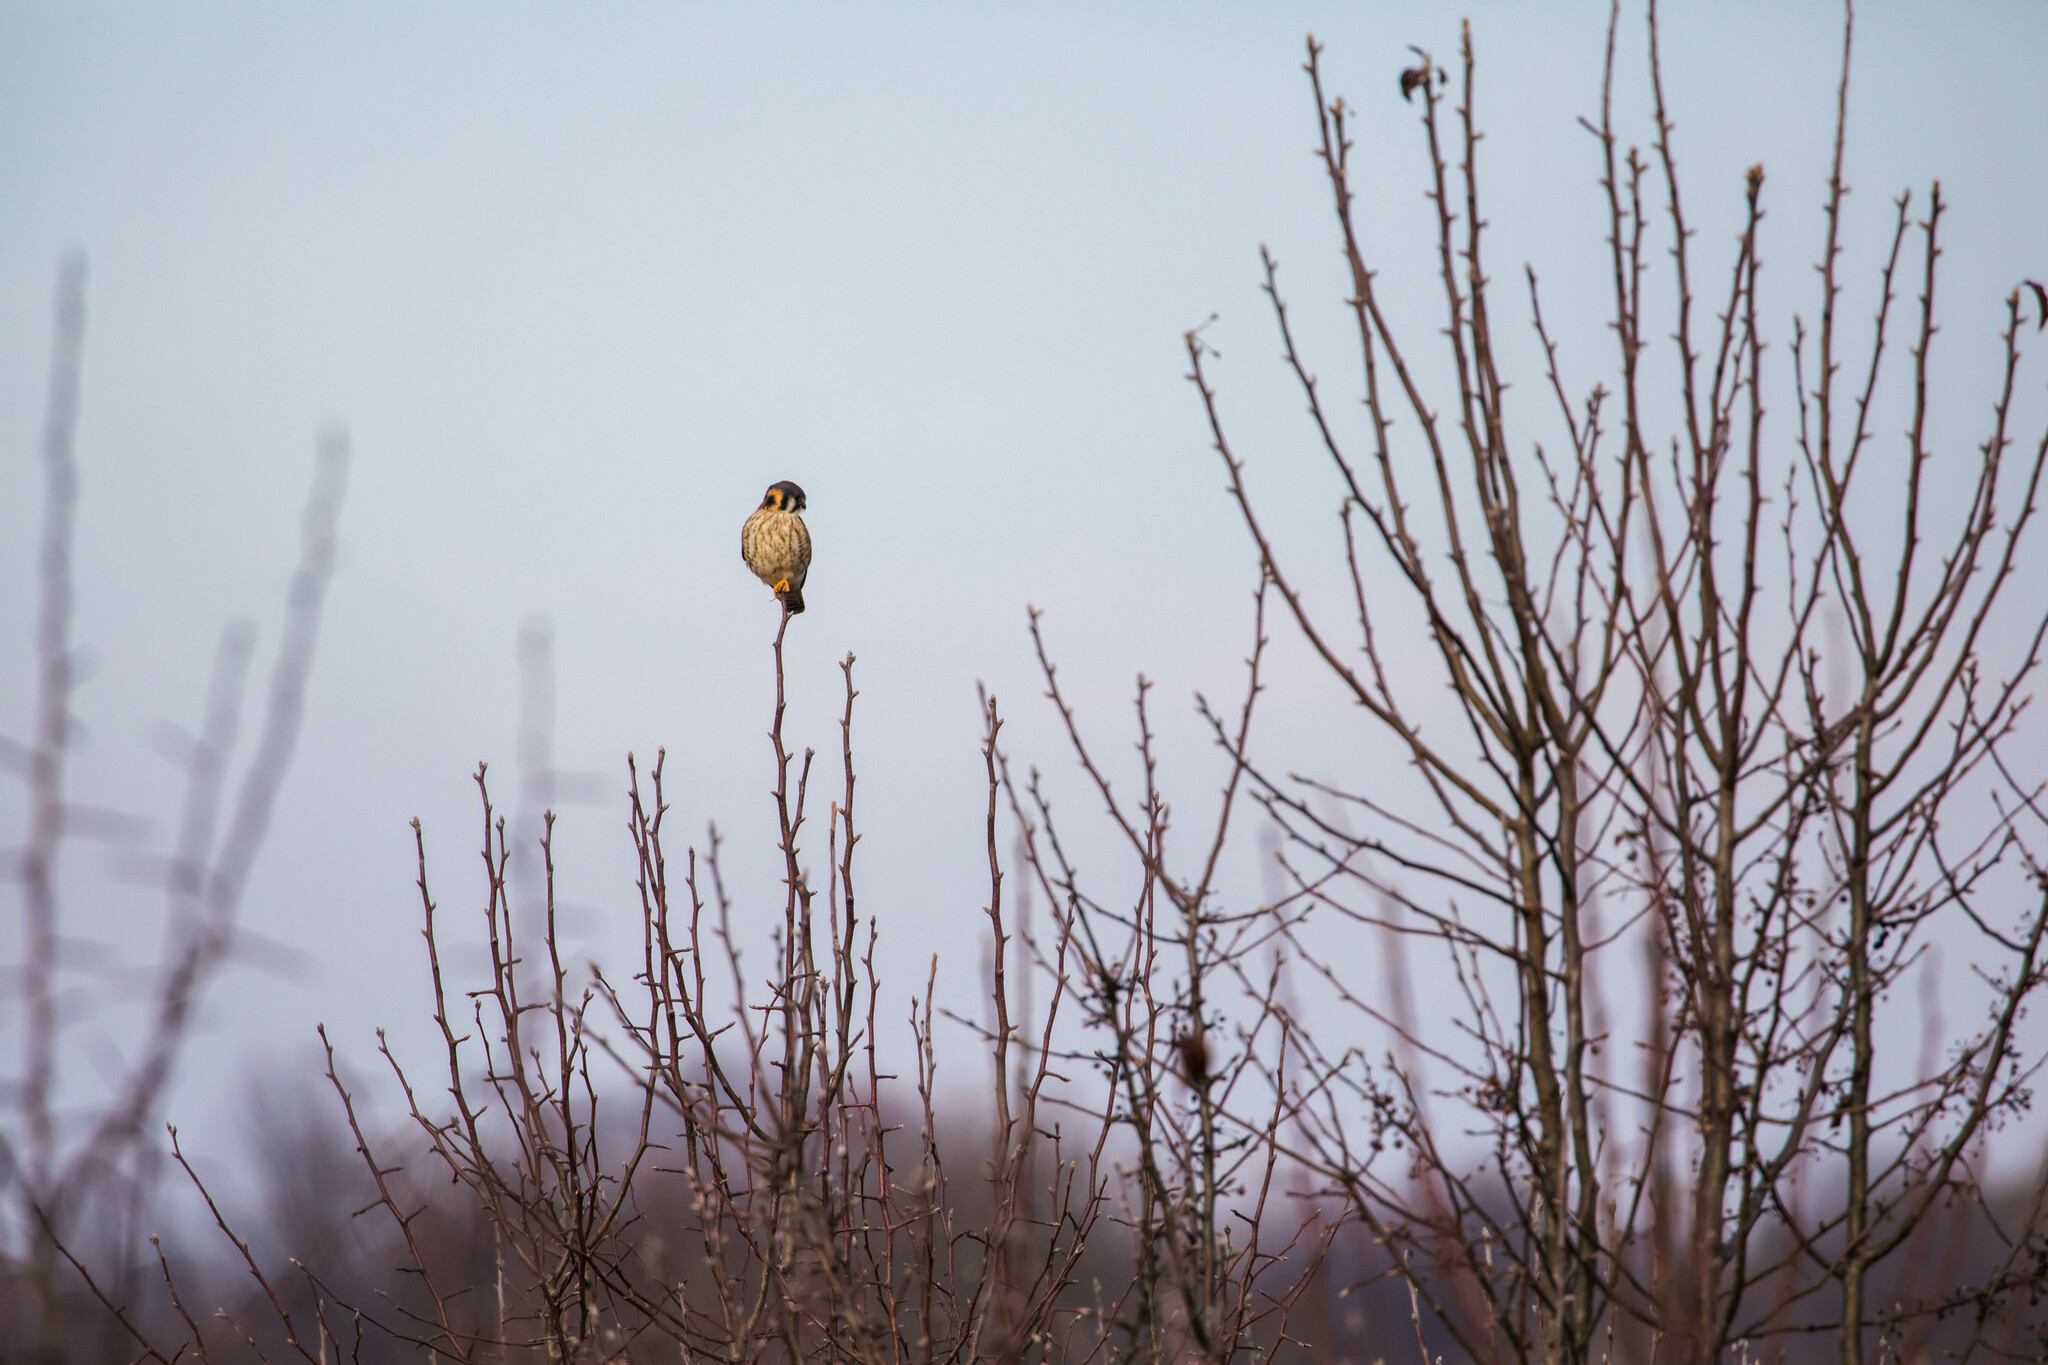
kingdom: Animalia
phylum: Chordata
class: Aves
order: Falconiformes
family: Falconidae
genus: Falco
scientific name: Falco sparverius
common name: American kestrel
